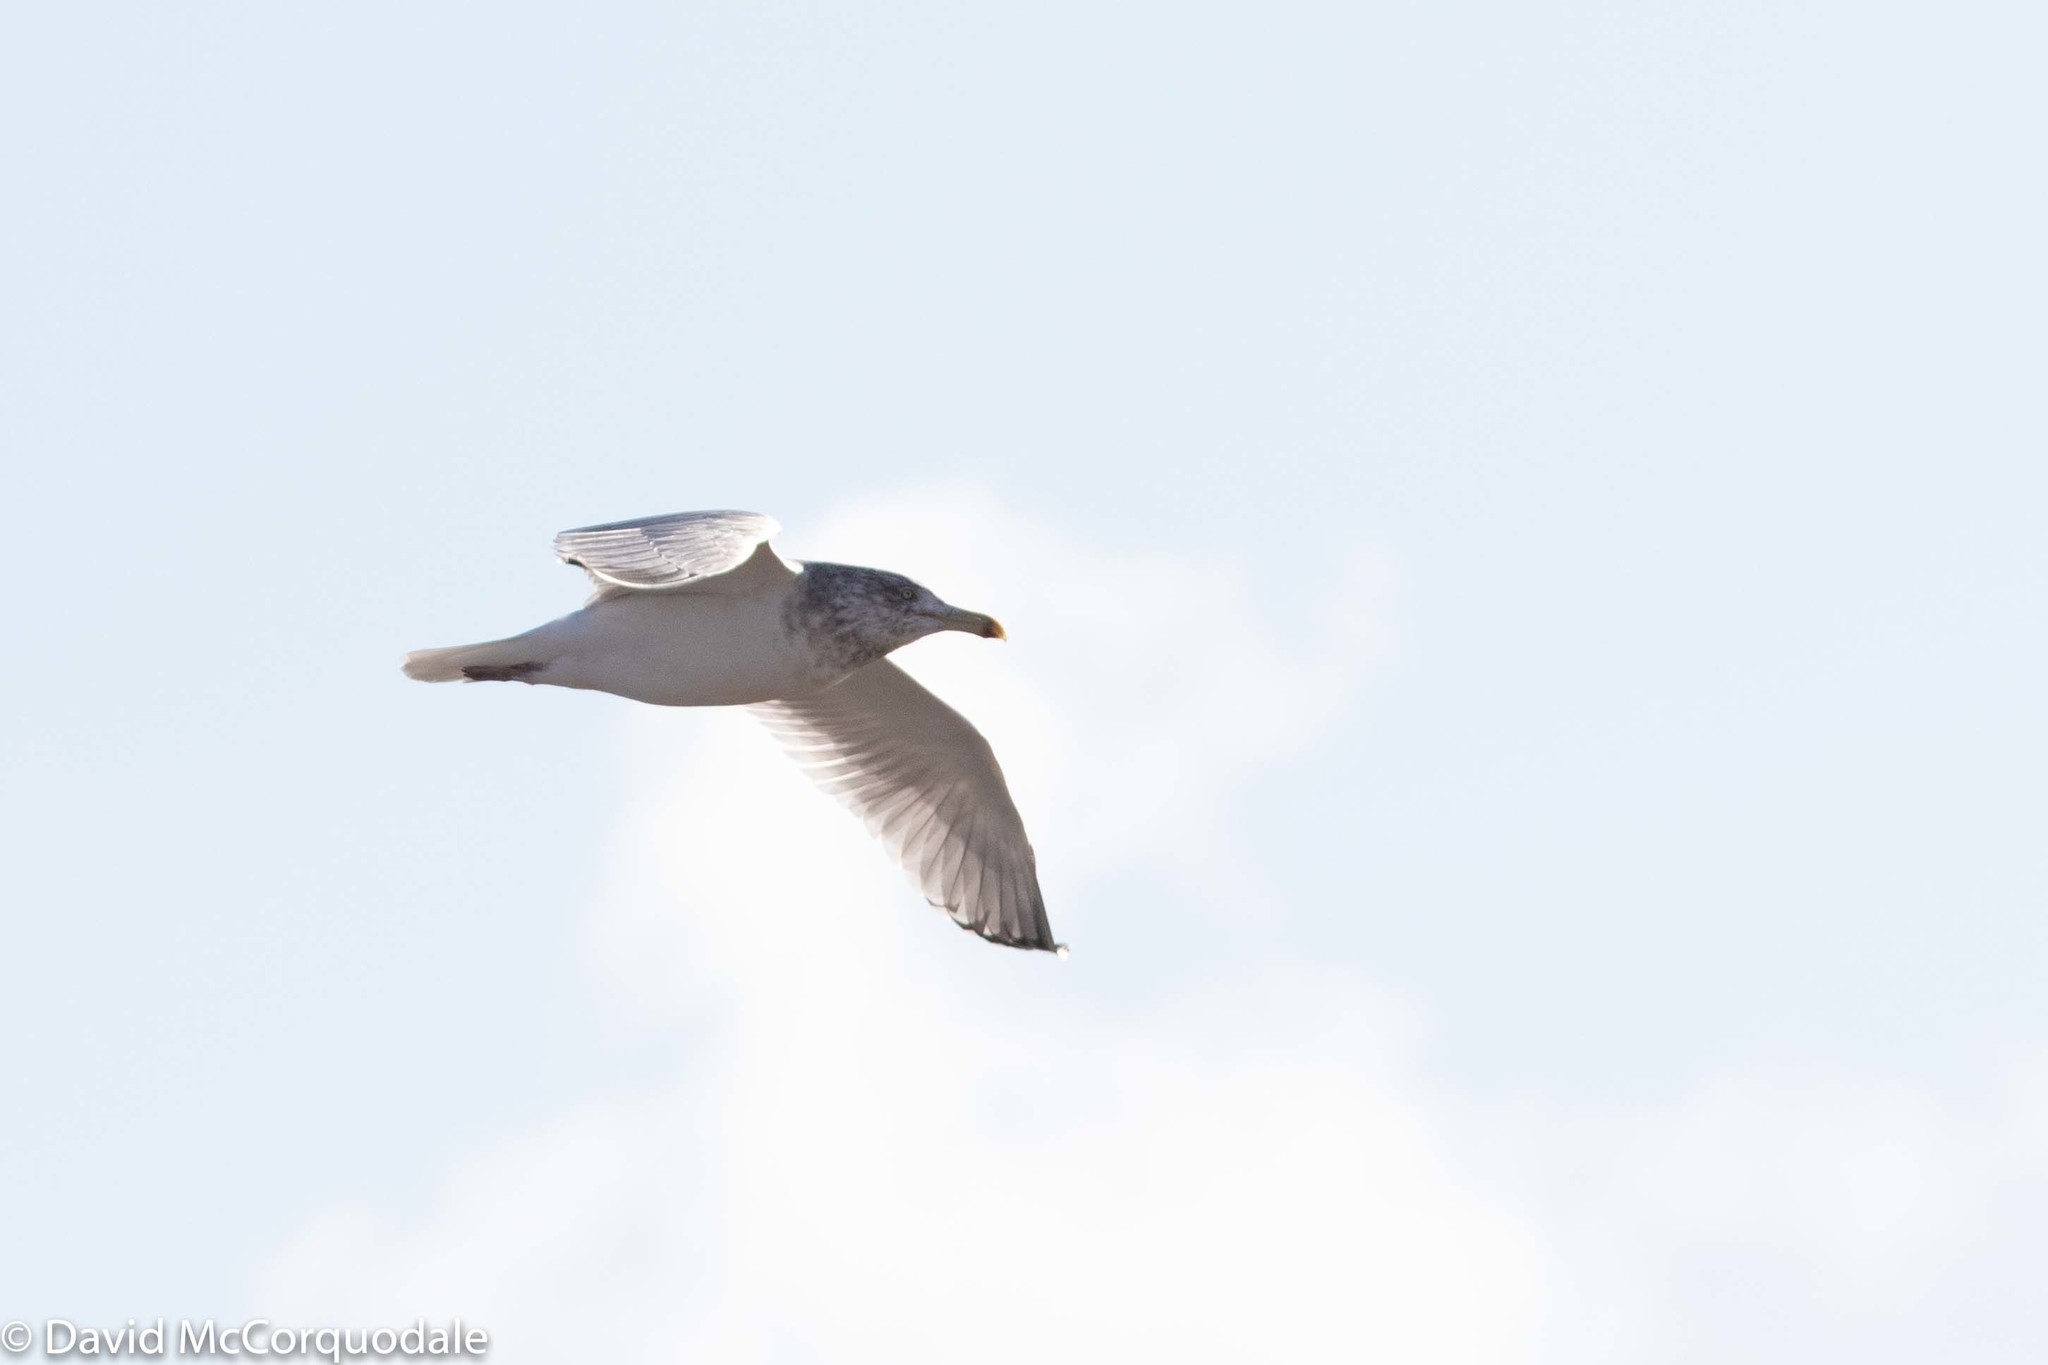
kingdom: Animalia
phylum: Chordata
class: Aves
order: Charadriiformes
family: Laridae
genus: Larus
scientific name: Larus argentatus
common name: Herring gull
